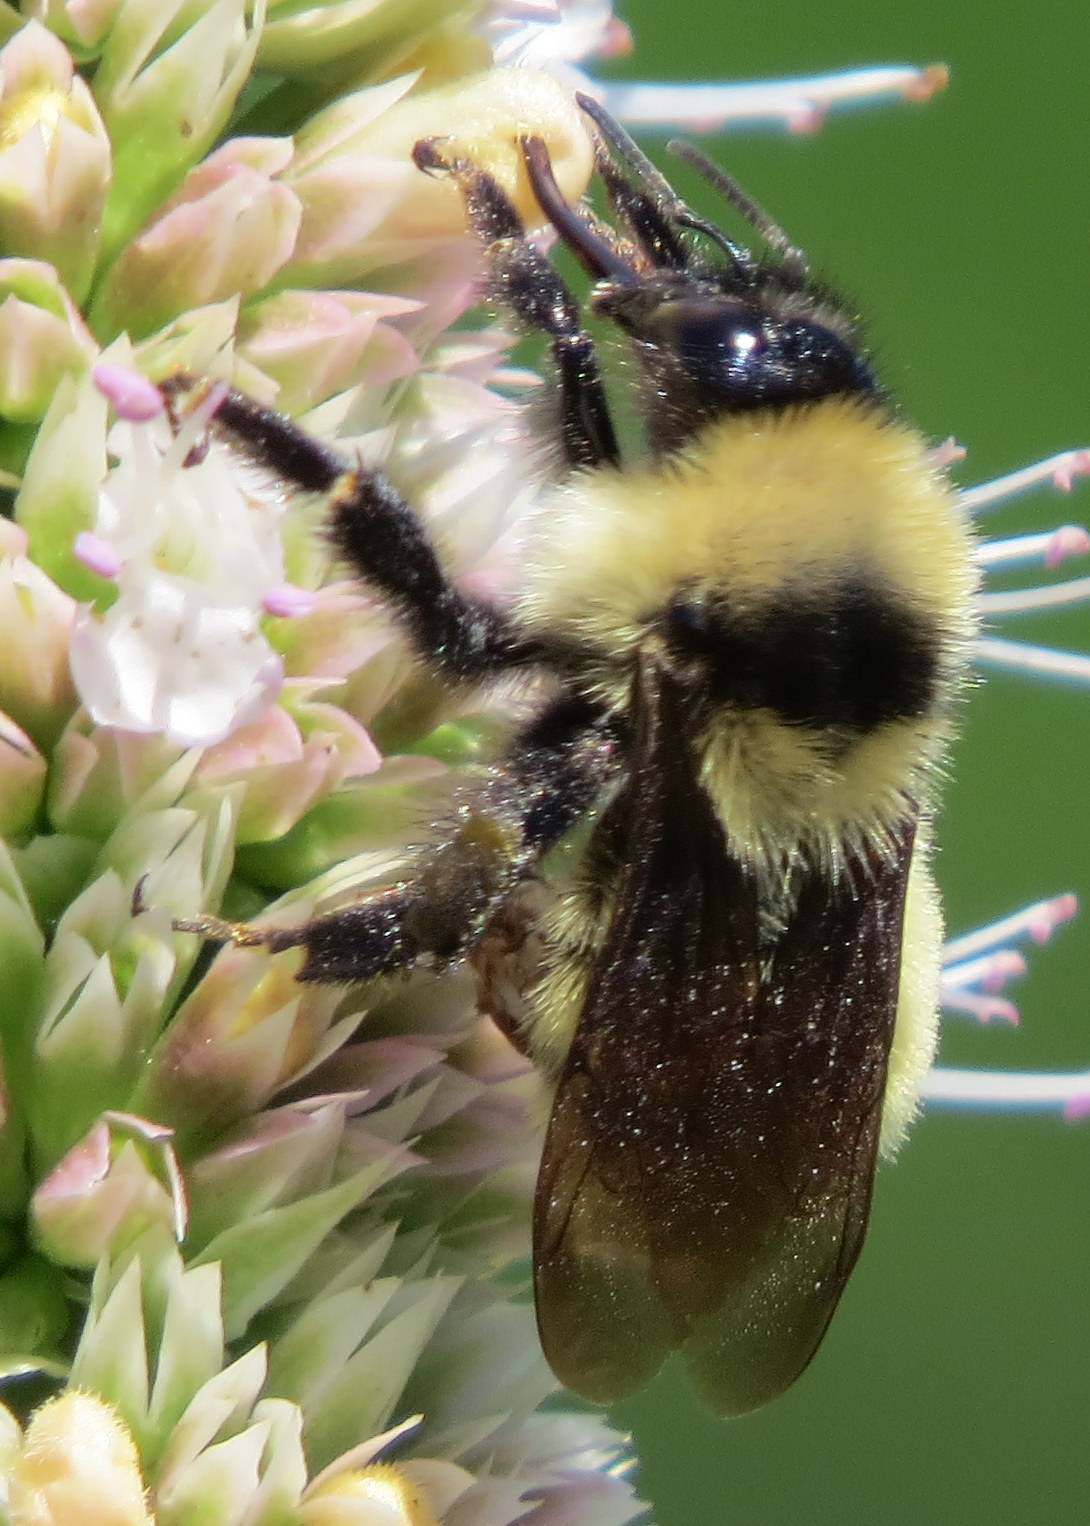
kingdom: Animalia
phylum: Arthropoda
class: Insecta
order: Hymenoptera
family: Apidae
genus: Bombus
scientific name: Bombus fervidus
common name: Yellow bumble bee
